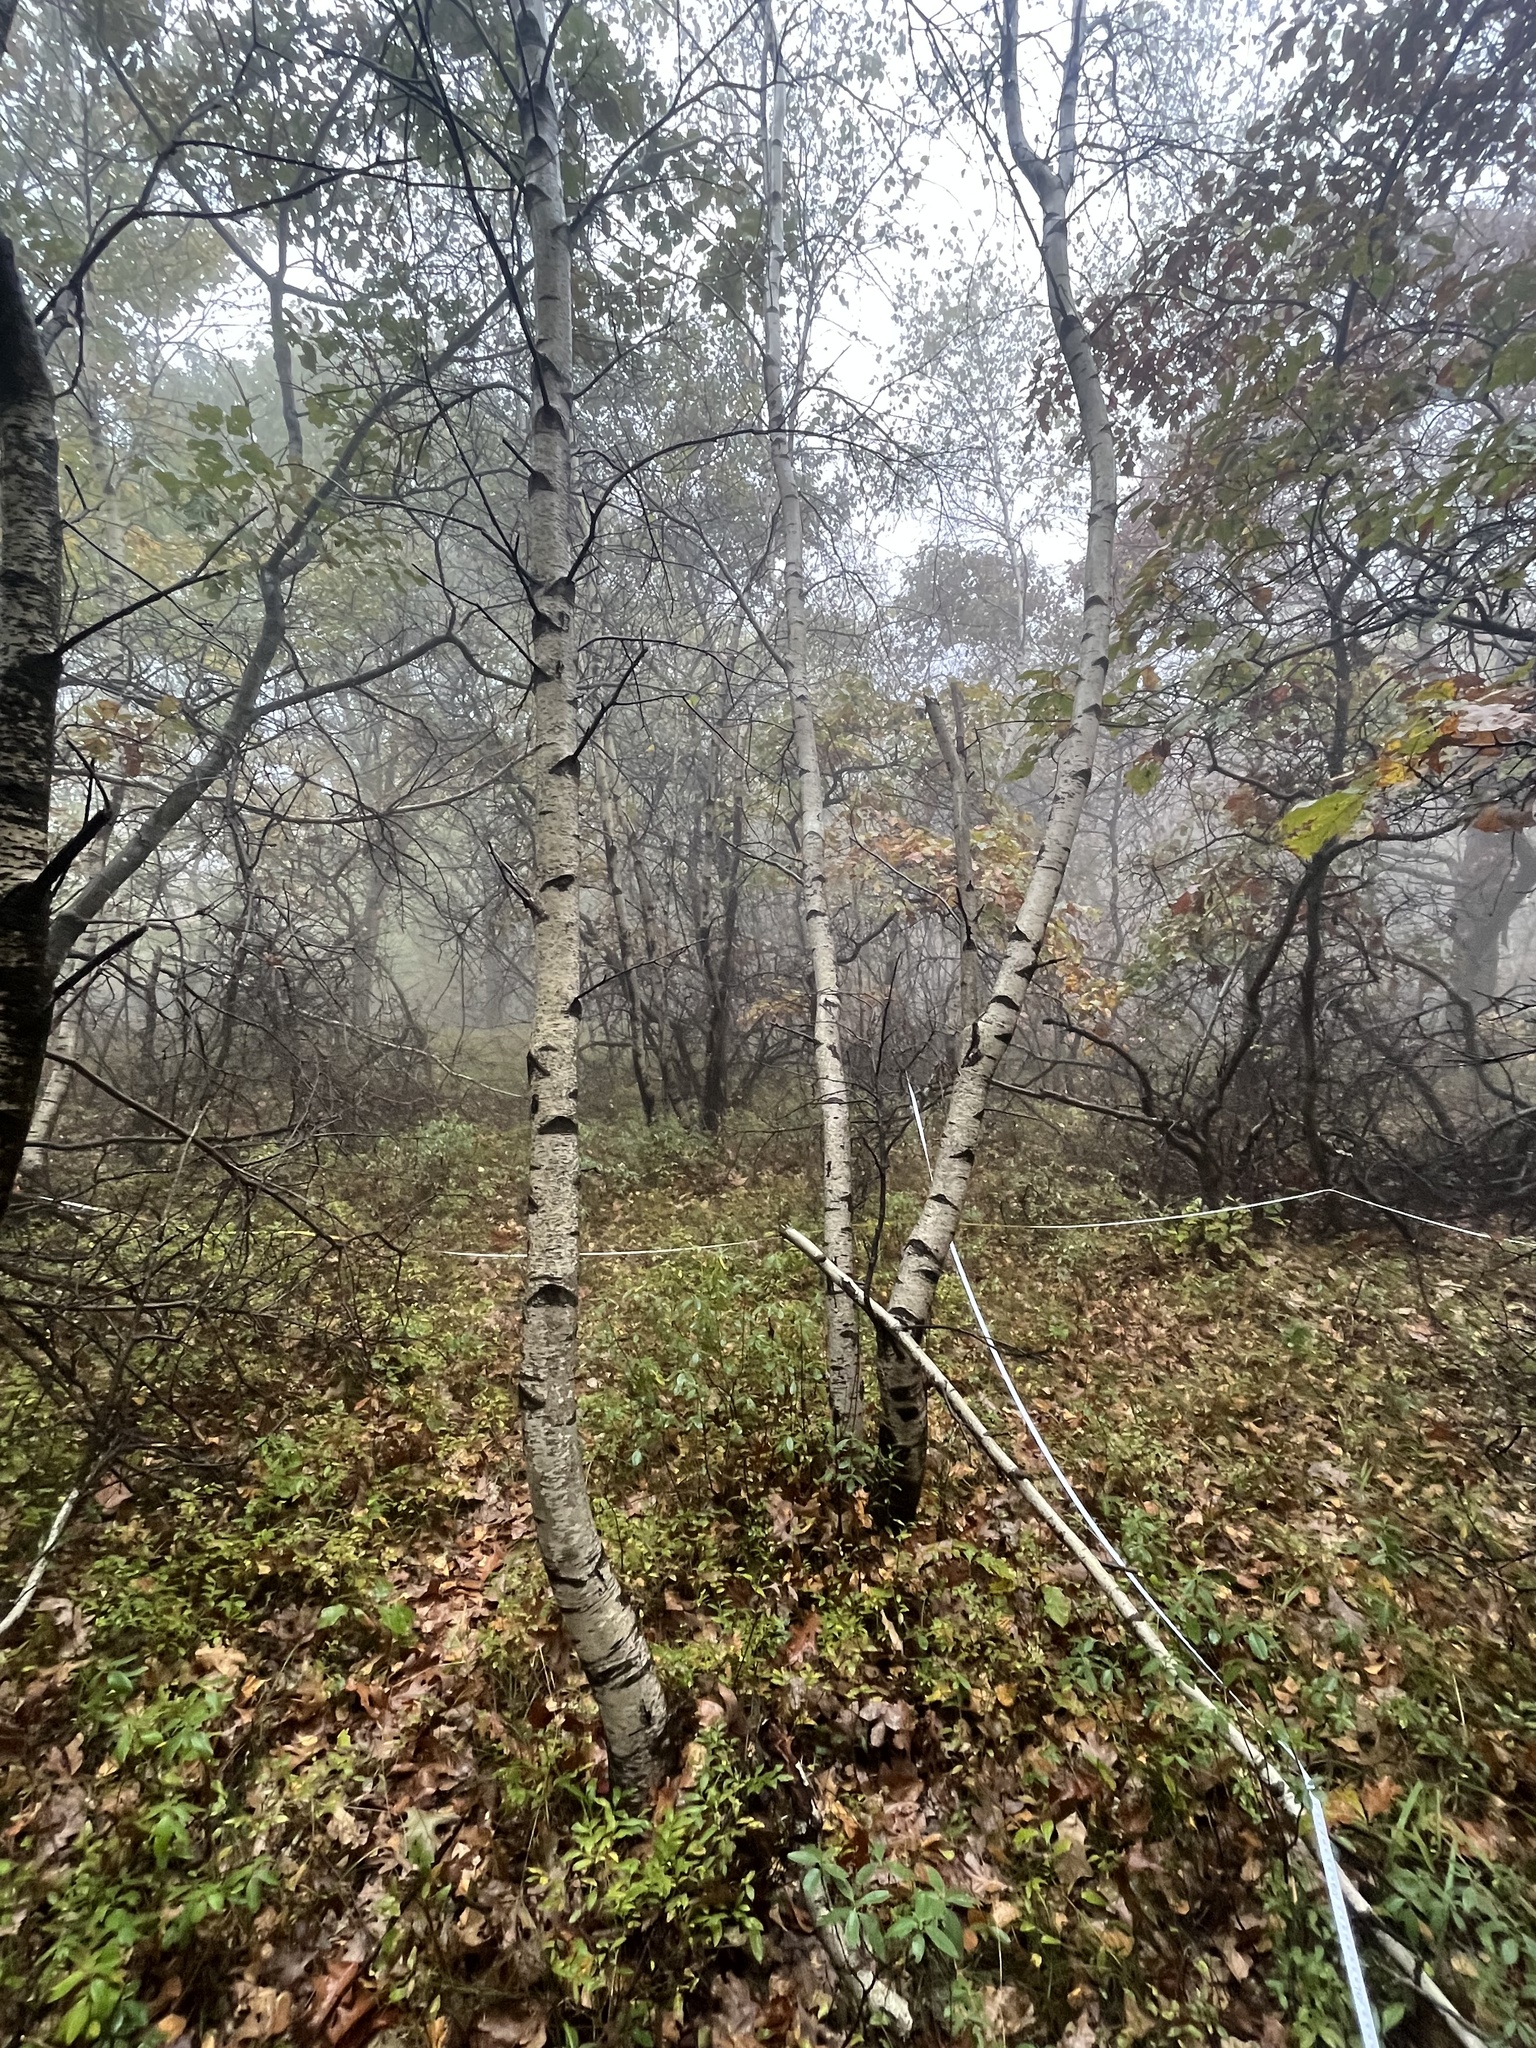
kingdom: Plantae
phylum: Tracheophyta
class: Magnoliopsida
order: Fagales
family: Betulaceae
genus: Betula
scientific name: Betula populifolia
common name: Fire birch
